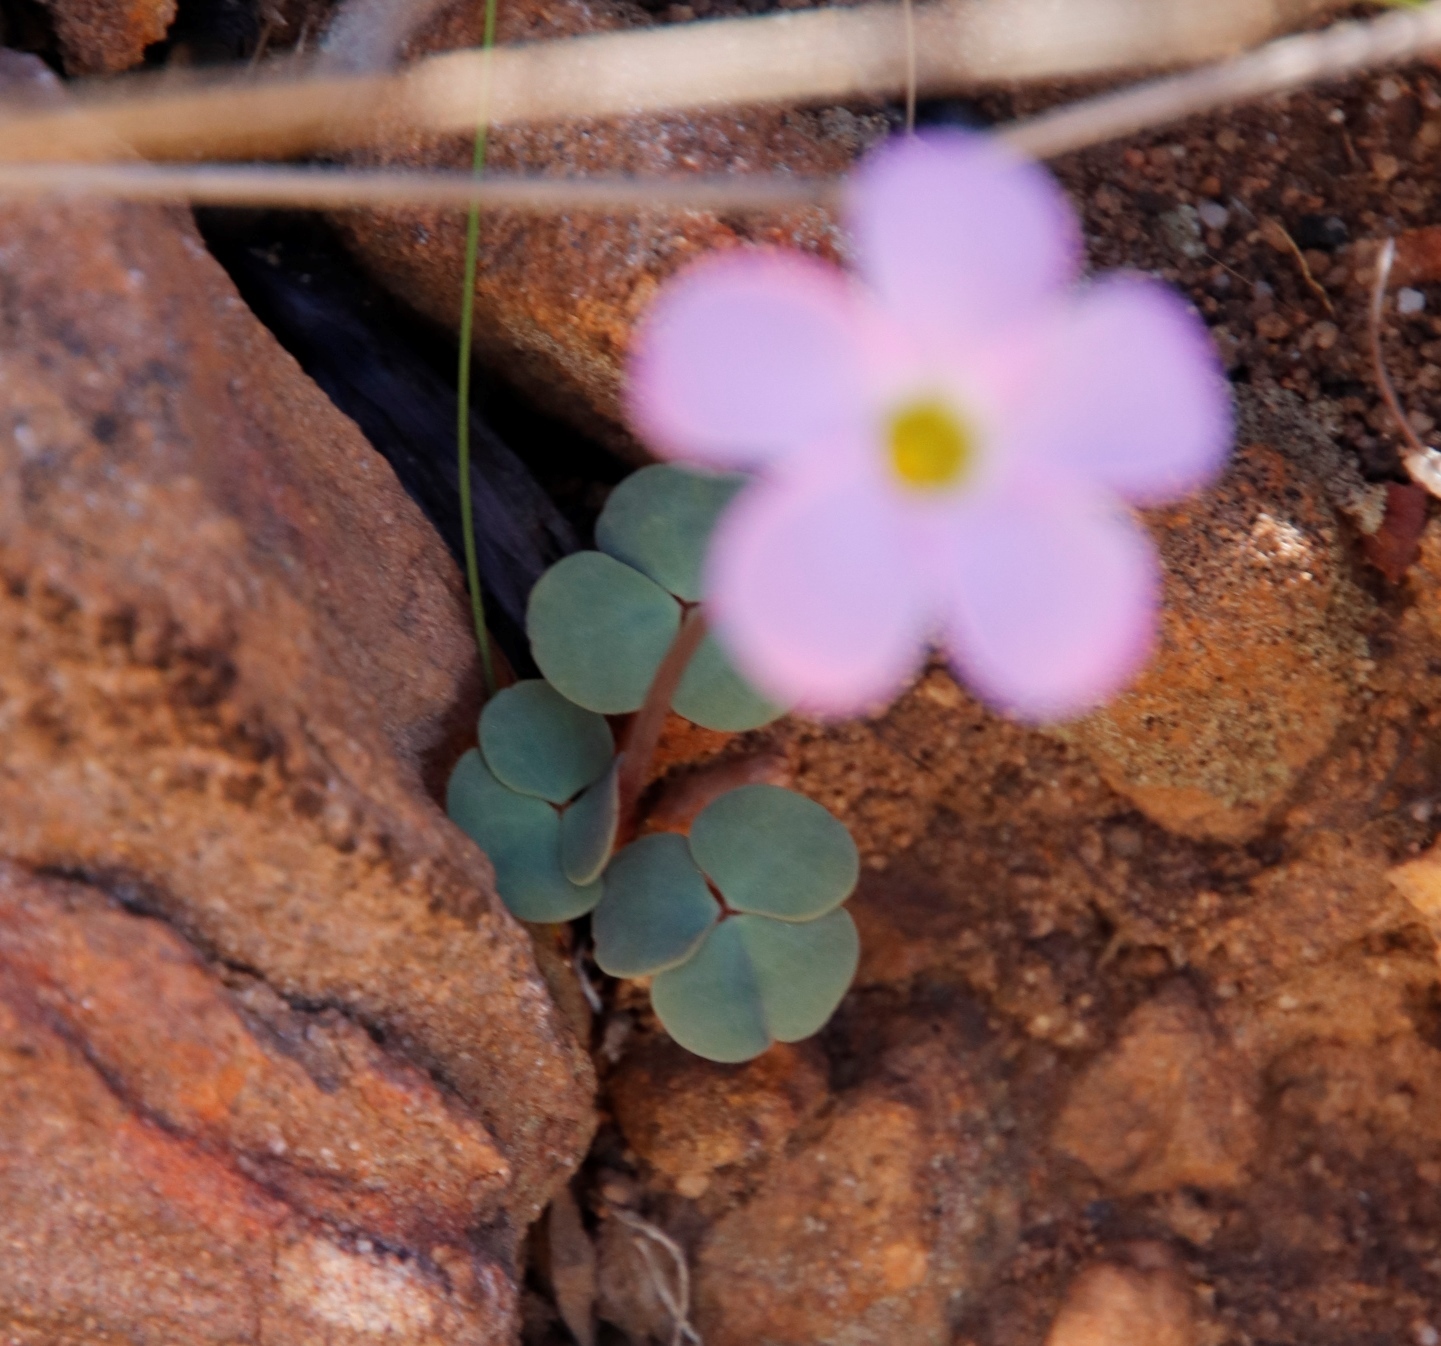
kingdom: Plantae
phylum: Tracheophyta
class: Magnoliopsida
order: Oxalidales
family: Oxalidaceae
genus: Oxalis
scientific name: Oxalis pocockiae
